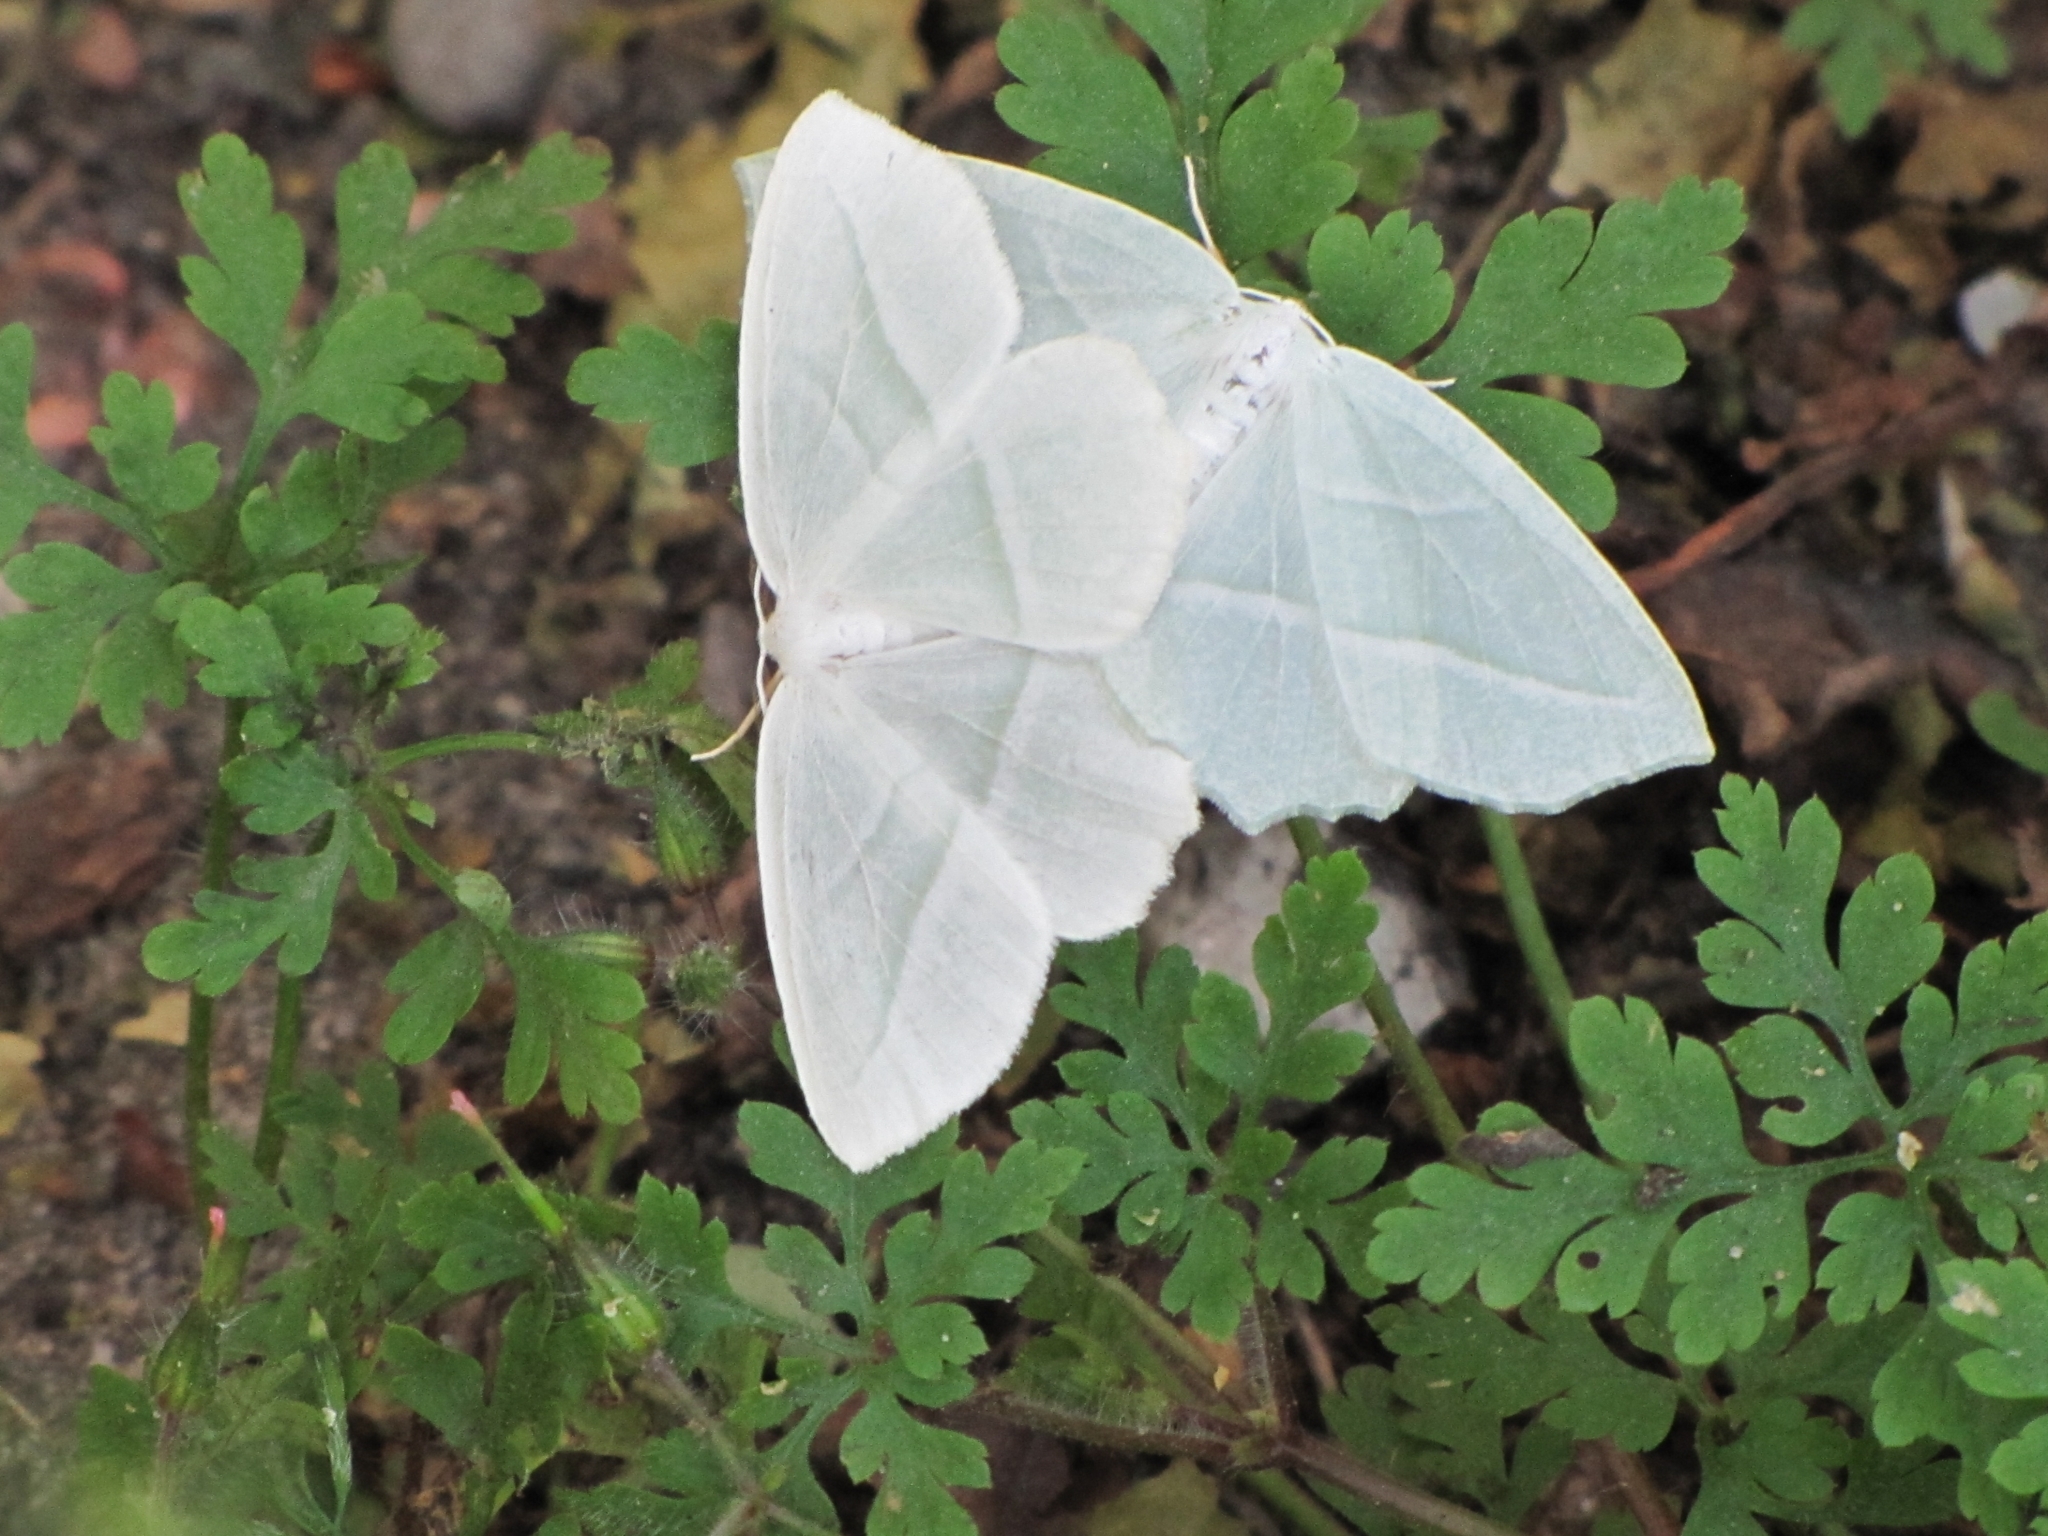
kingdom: Animalia
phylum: Arthropoda
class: Insecta
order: Lepidoptera
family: Geometridae
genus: Campaea
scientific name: Campaea perlata
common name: Fringed looper
